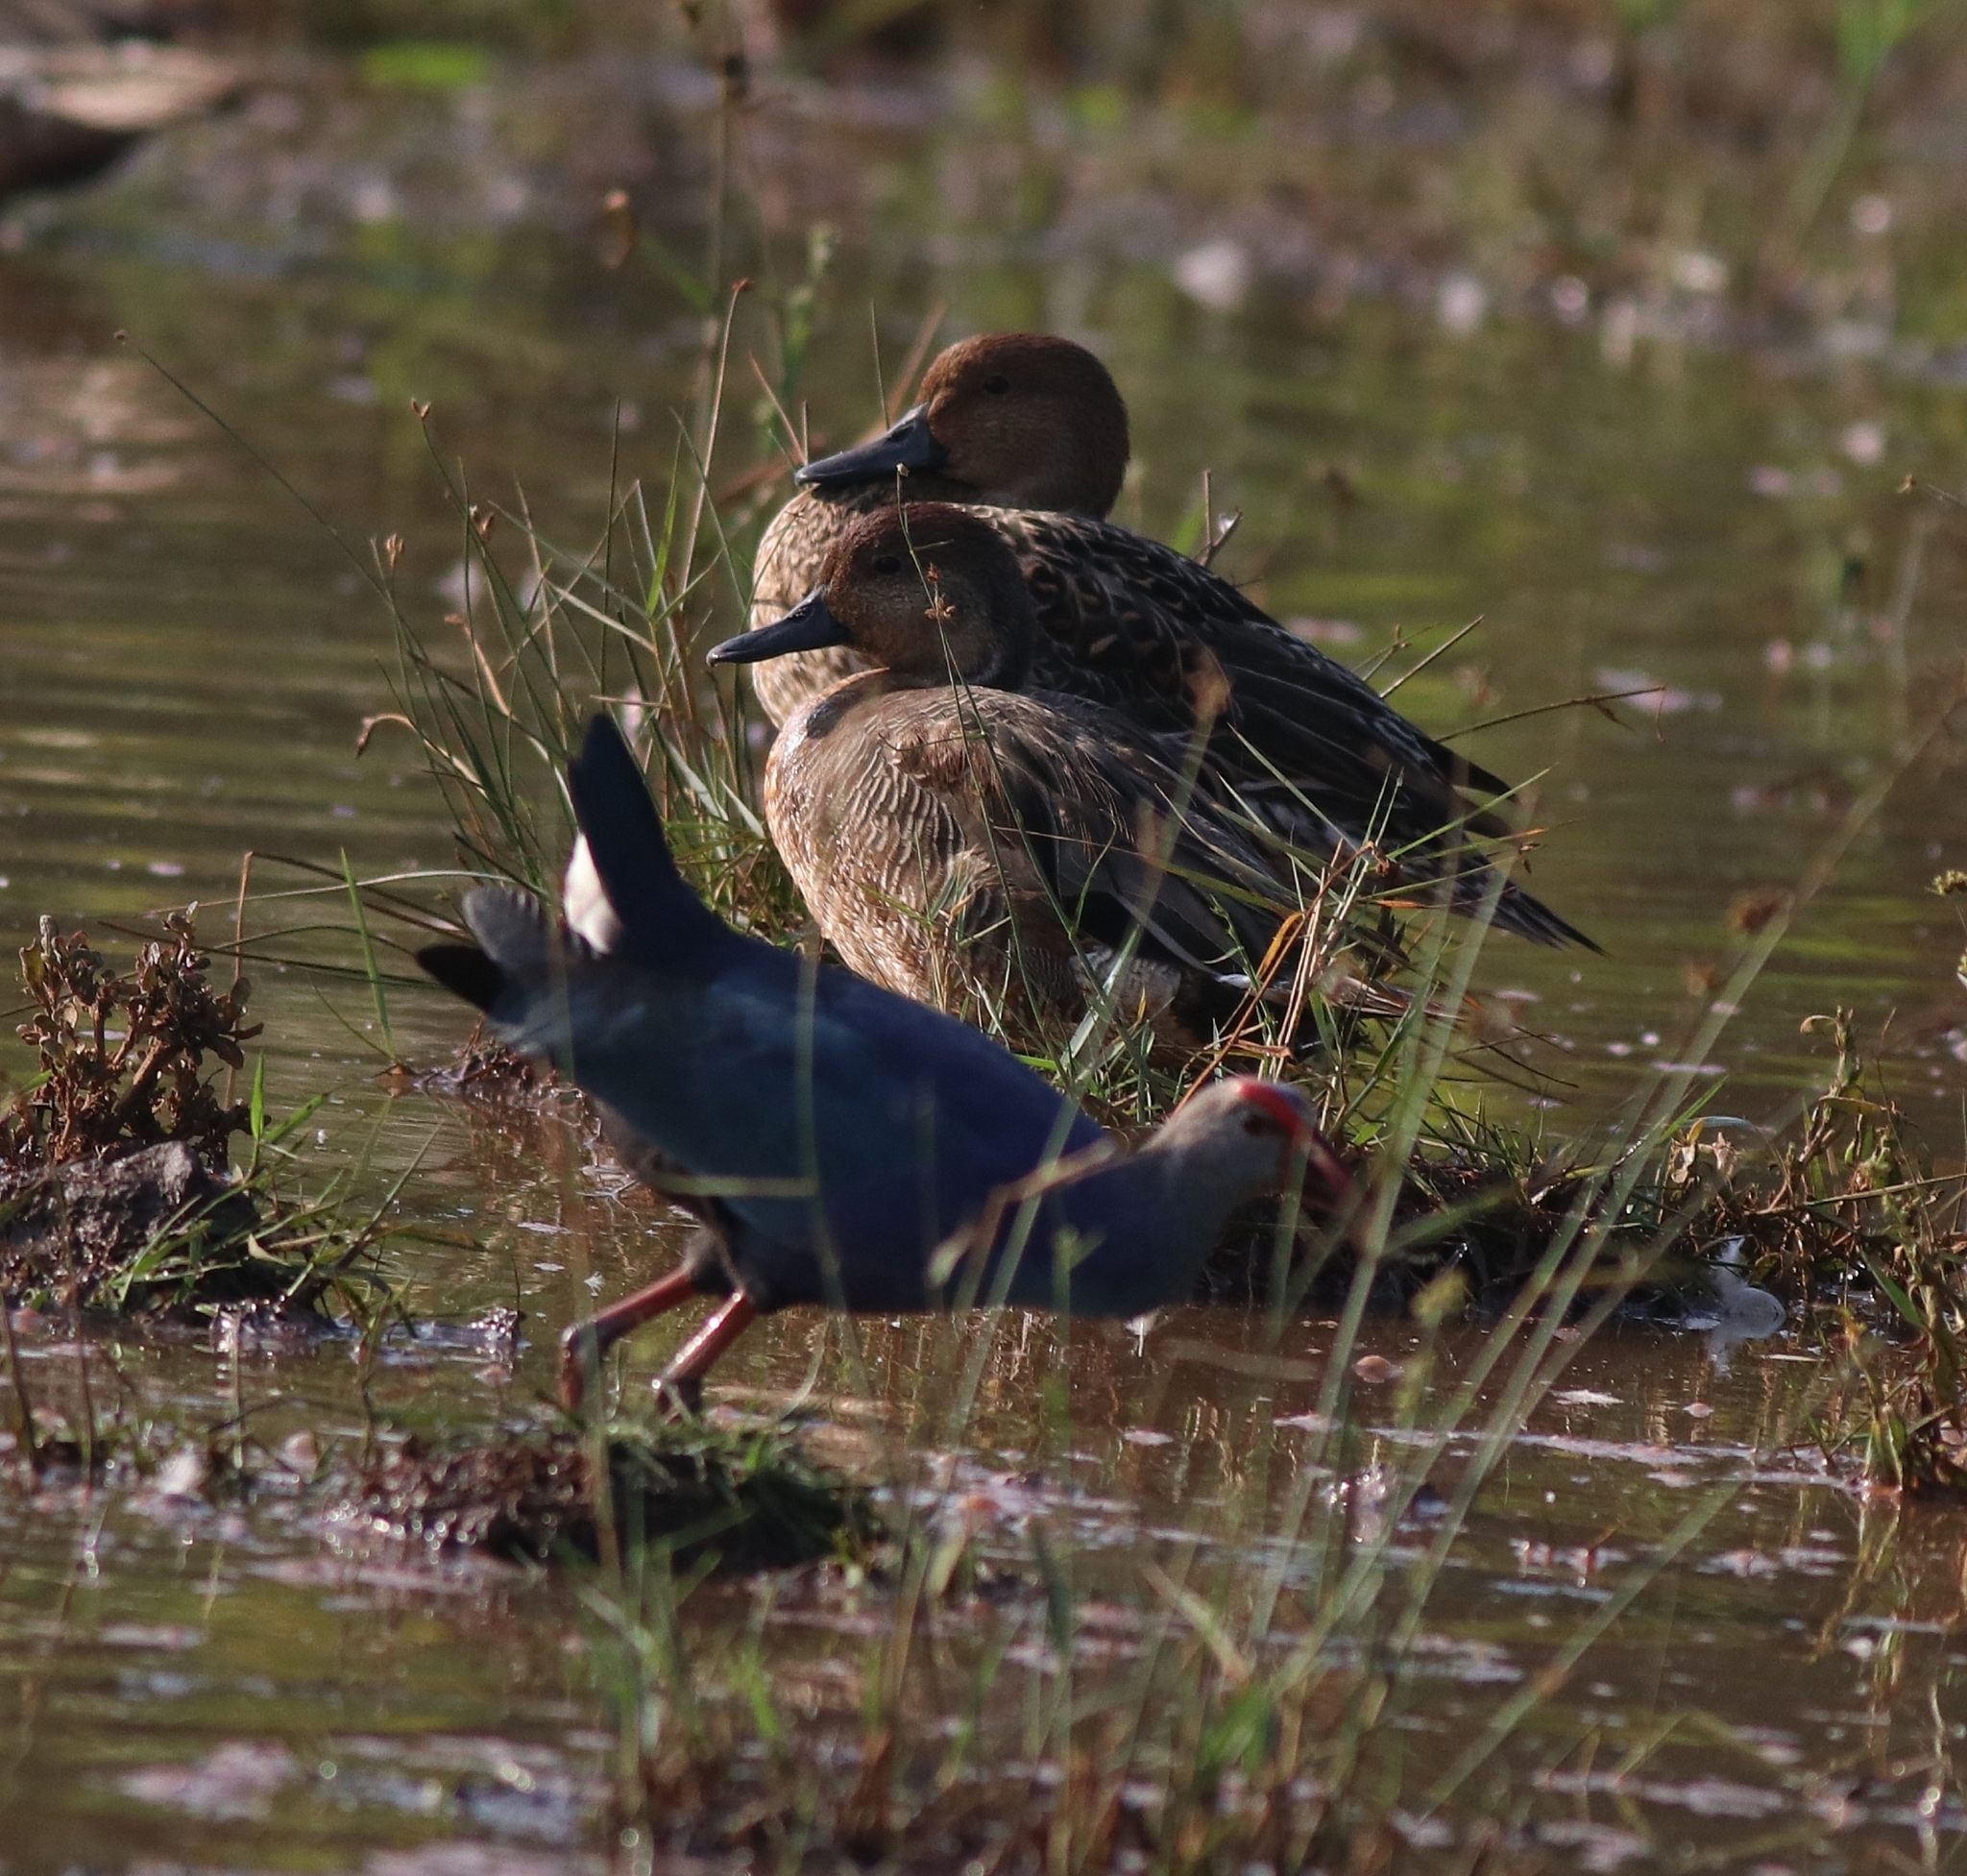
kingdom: Animalia
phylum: Chordata
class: Aves
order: Anseriformes
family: Anatidae
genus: Anas
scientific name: Anas acuta
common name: Northern pintail
